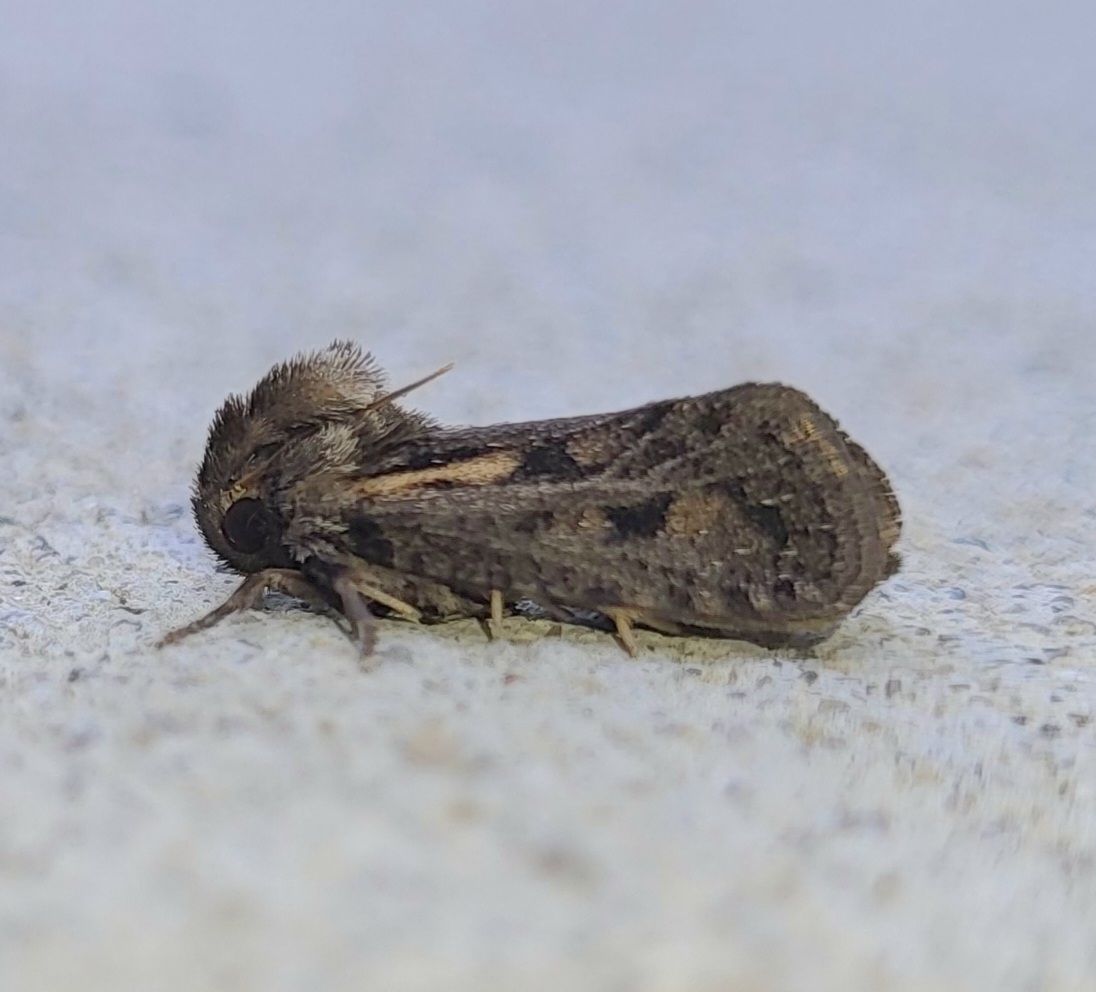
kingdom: Animalia
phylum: Arthropoda
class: Insecta
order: Lepidoptera
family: Tineidae
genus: Acrolophus
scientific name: Acrolophus popeanella
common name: Clemens' grass tubeworm moth
